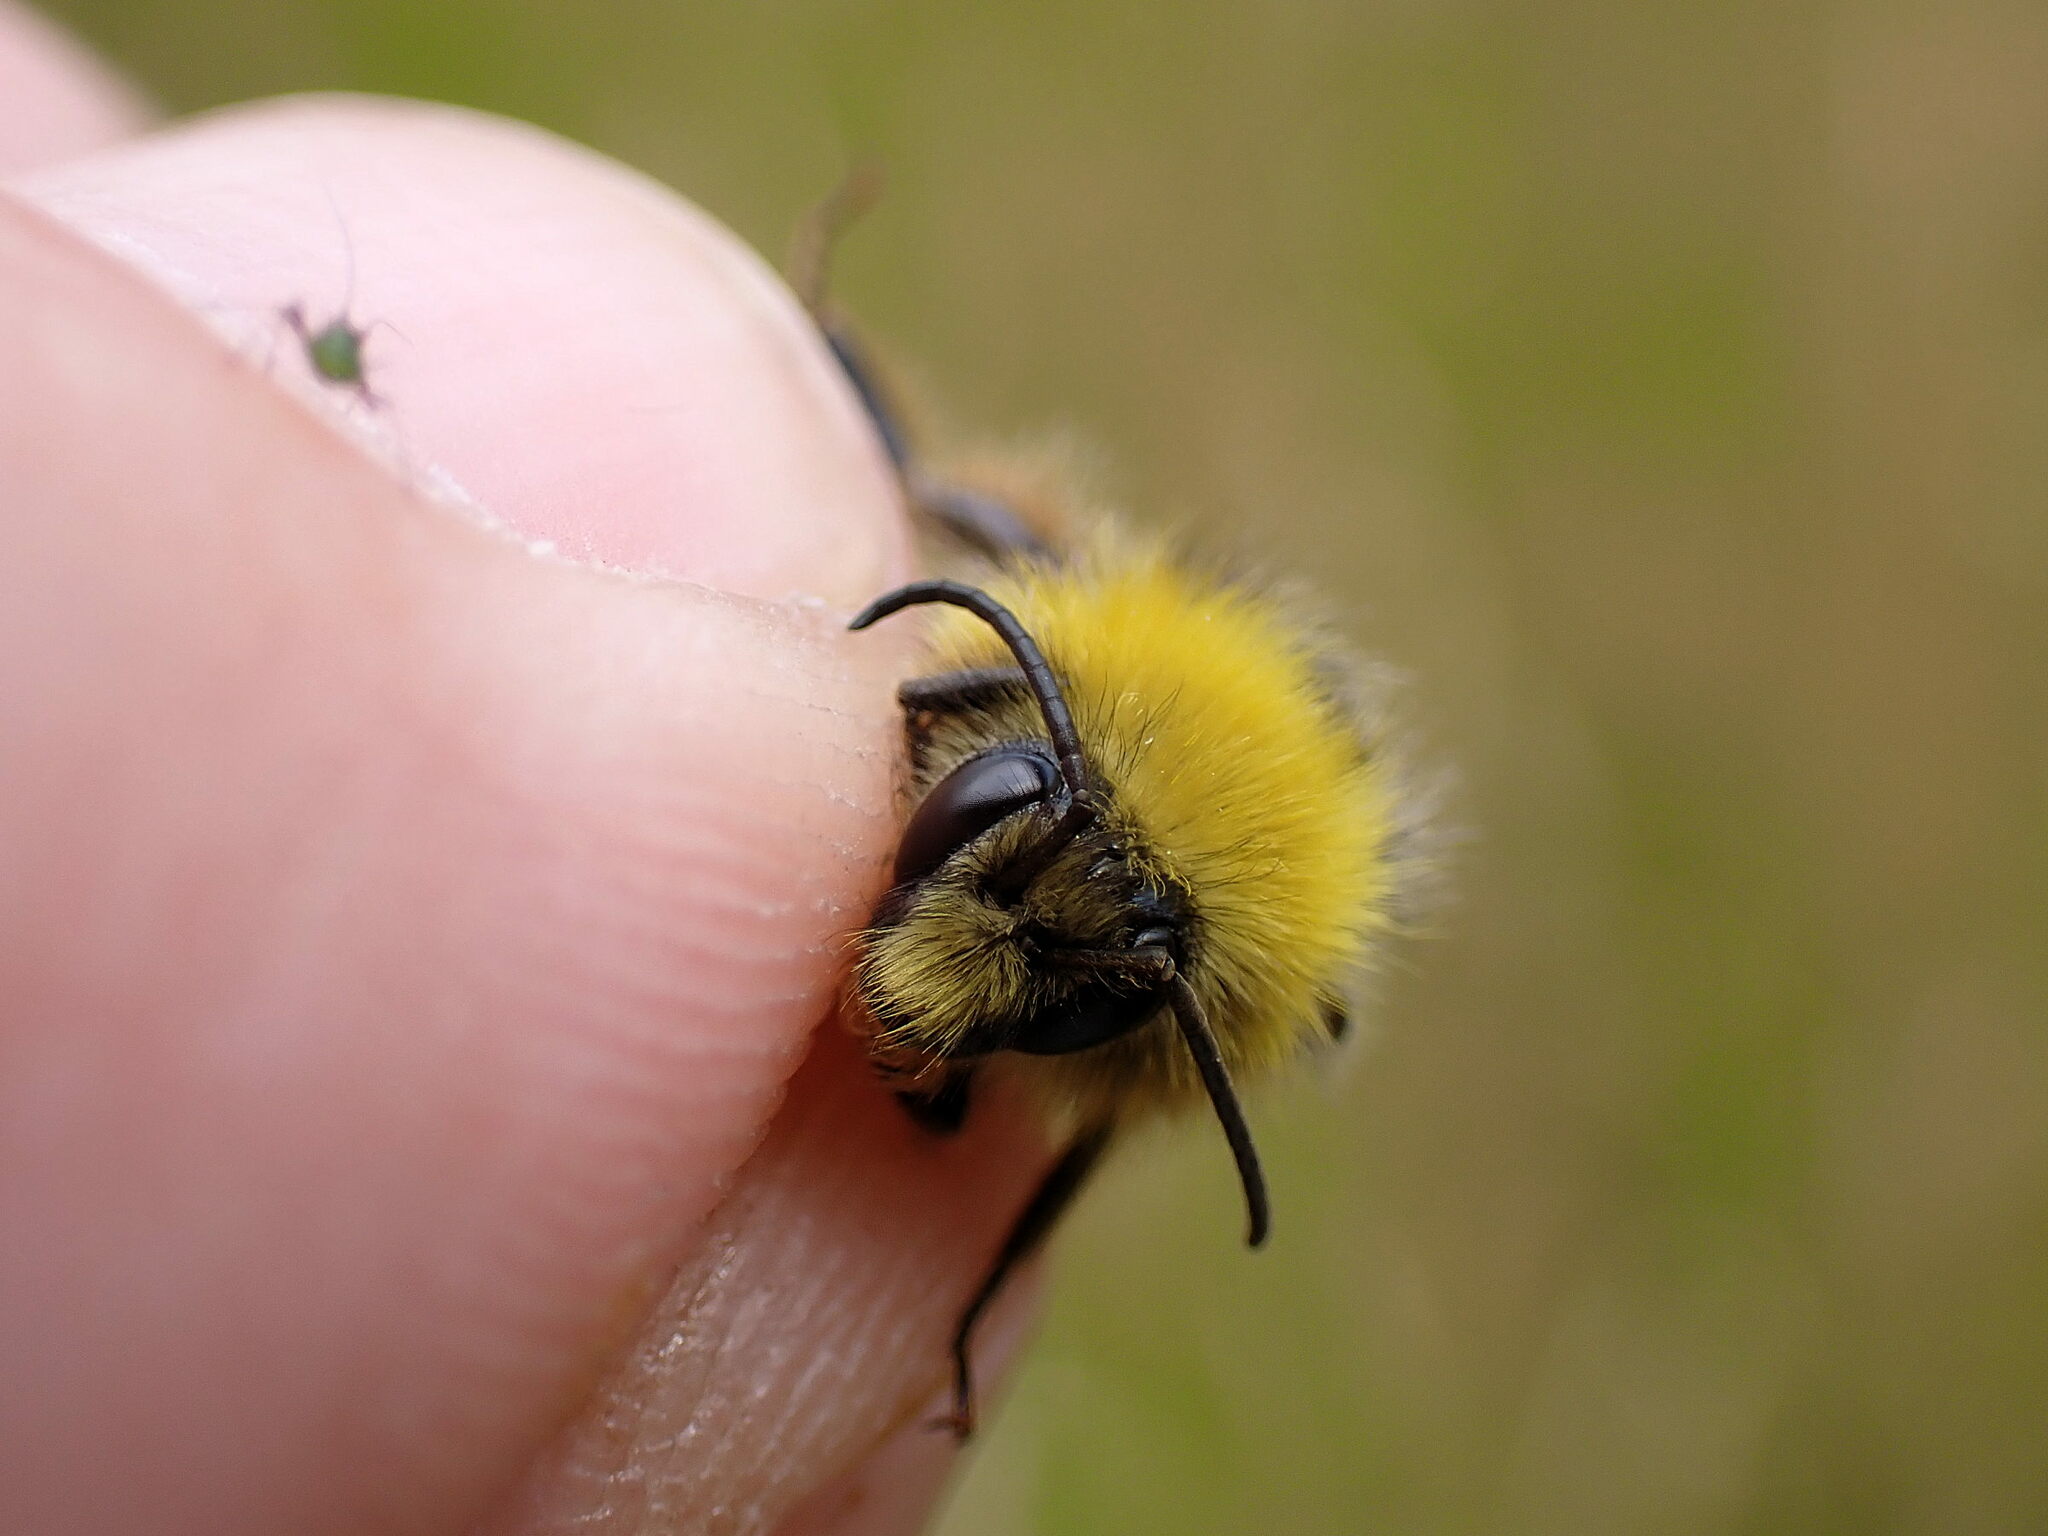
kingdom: Animalia
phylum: Arthropoda
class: Insecta
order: Hymenoptera
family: Apidae
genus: Bombus
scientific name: Bombus pratorum
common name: Early humble-bee
